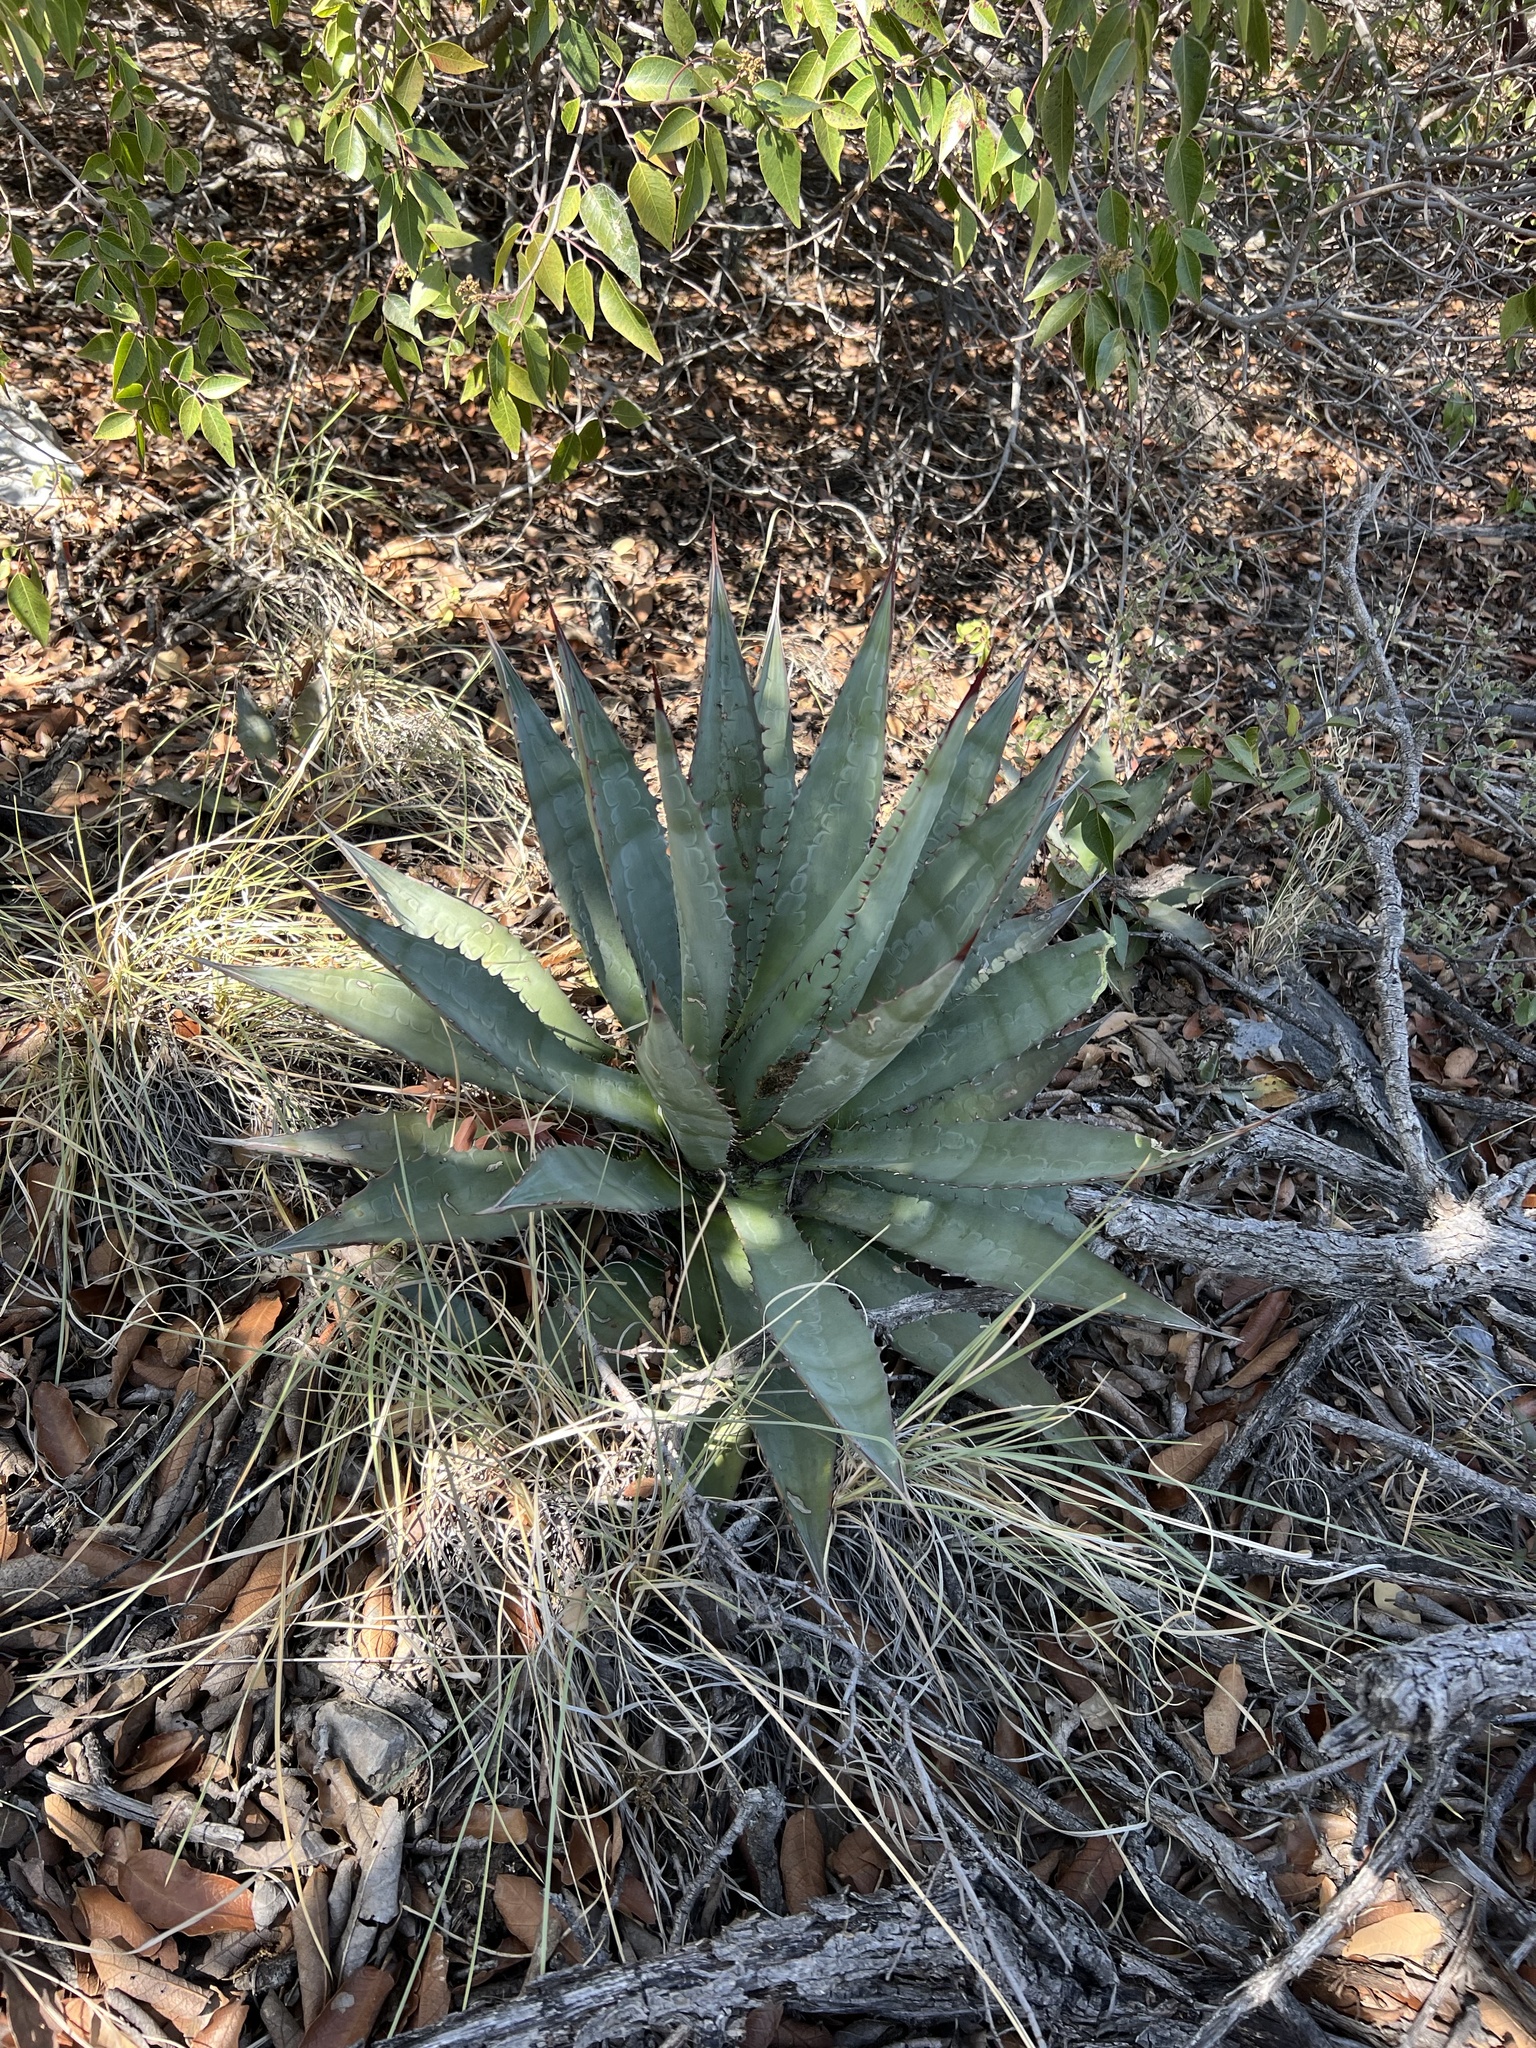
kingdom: Plantae
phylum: Tracheophyta
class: Liliopsida
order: Asparagales
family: Asparagaceae
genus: Agave
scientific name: Agave palmeri
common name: Palmer agave
